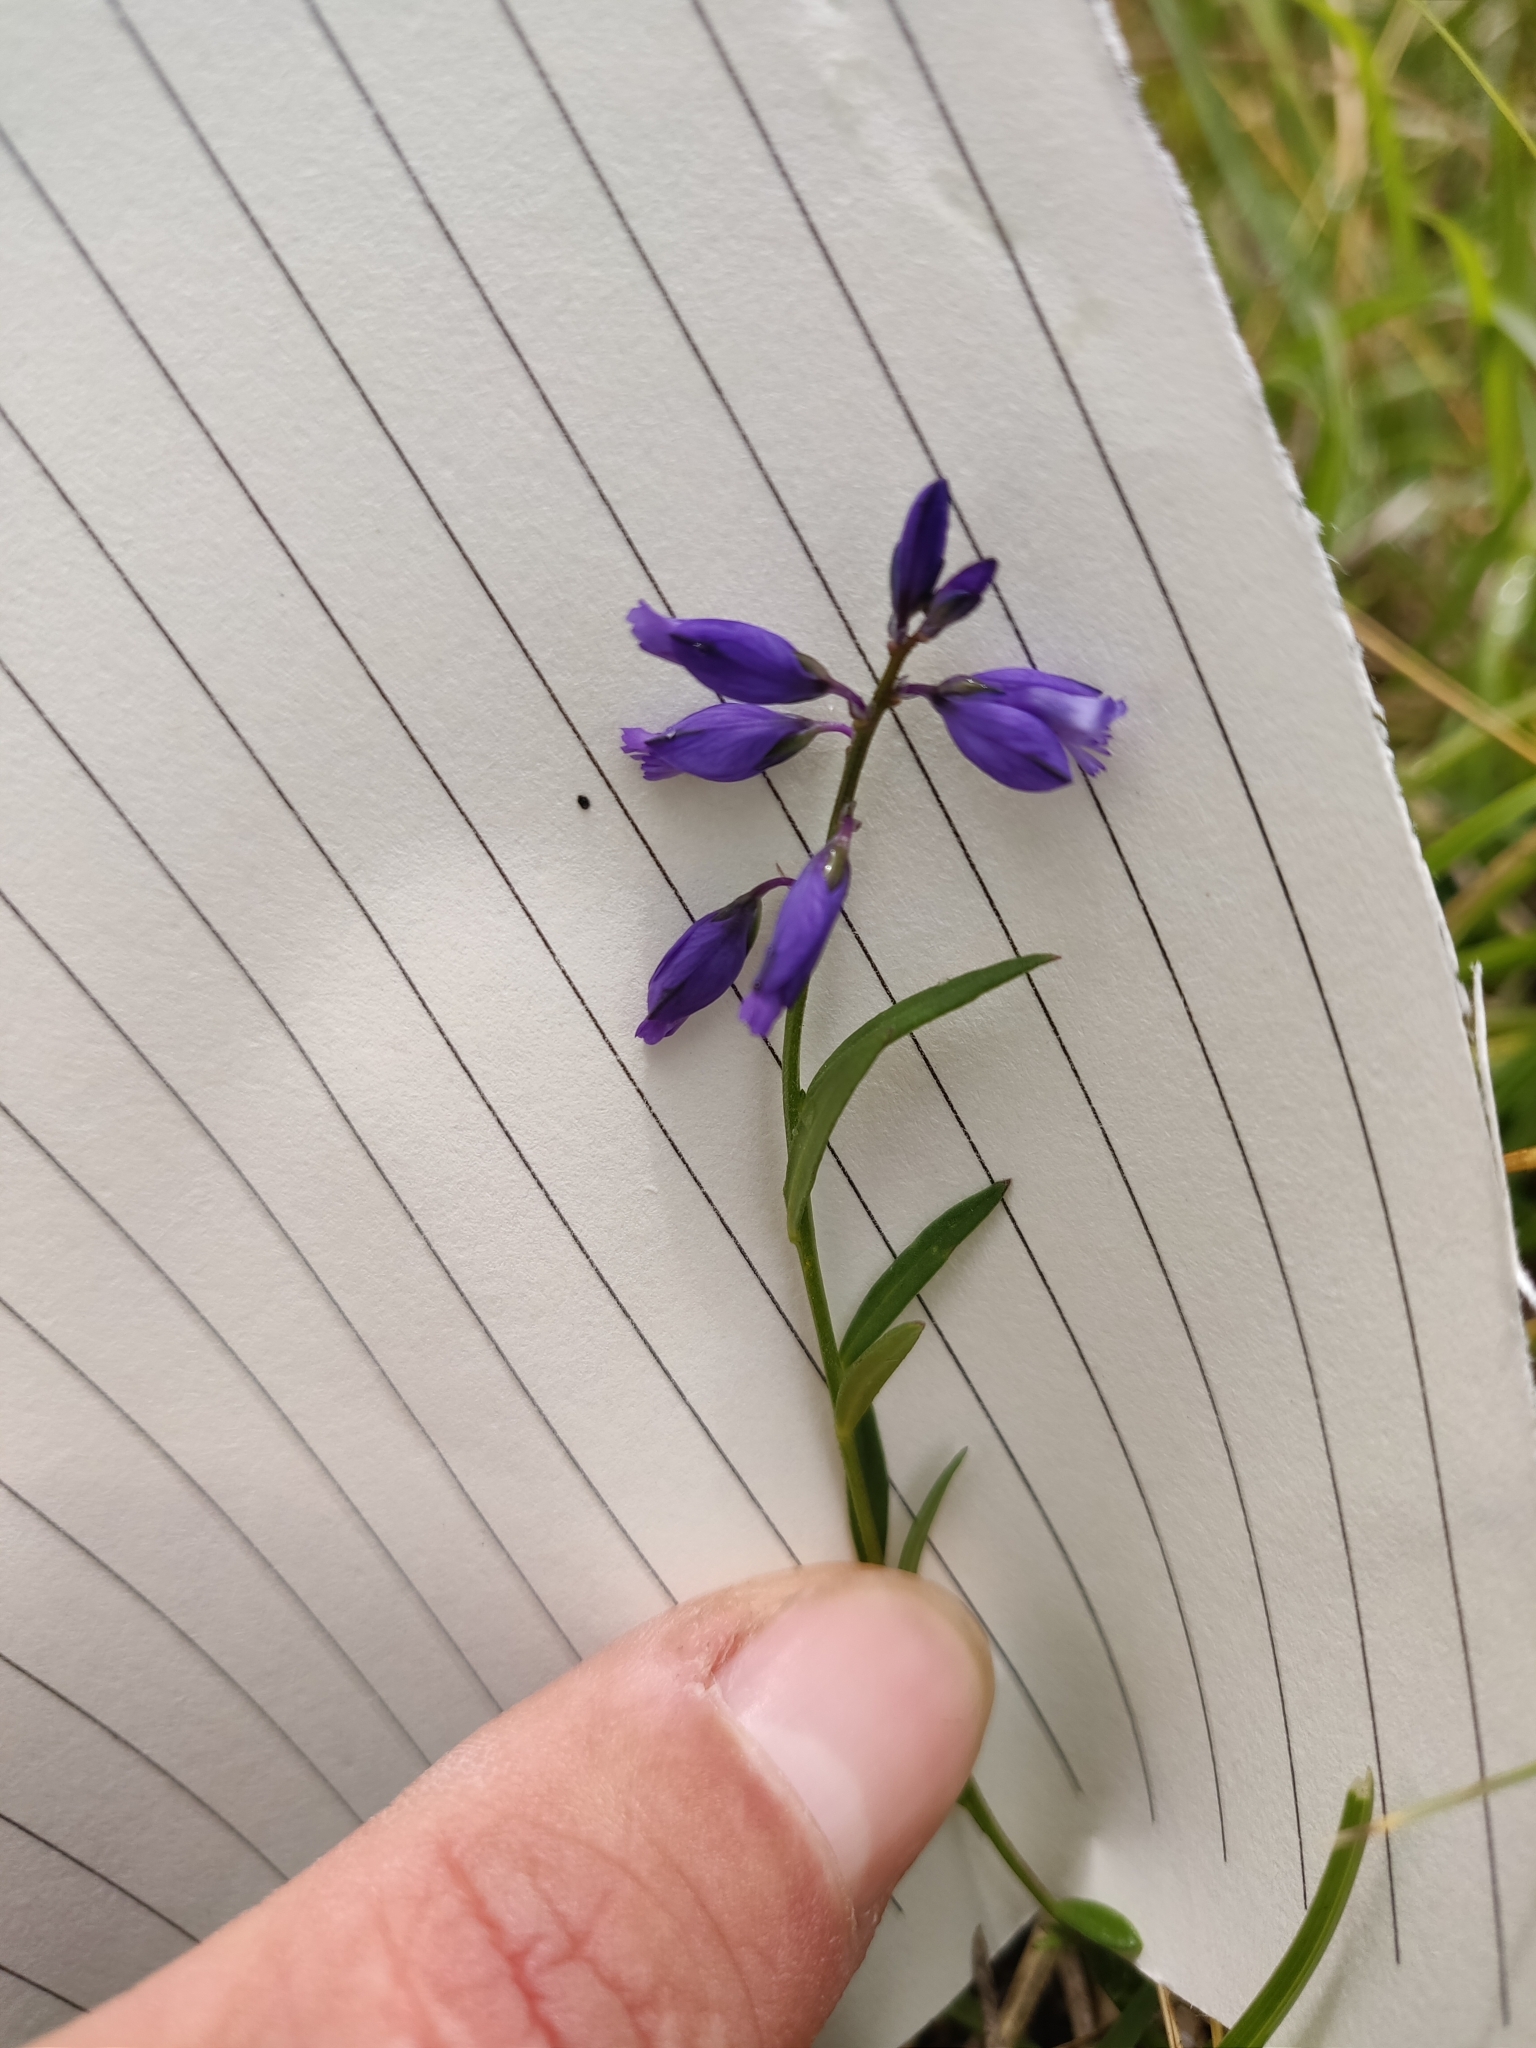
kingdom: Plantae
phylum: Tracheophyta
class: Magnoliopsida
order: Fabales
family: Polygalaceae
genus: Polygala
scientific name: Polygala vulgaris
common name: Common milkwort
